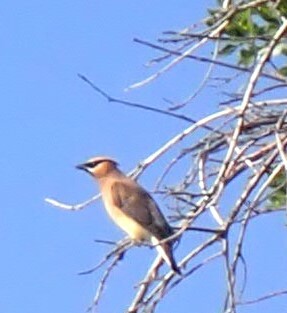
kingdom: Animalia
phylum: Chordata
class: Aves
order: Passeriformes
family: Bombycillidae
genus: Bombycilla
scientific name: Bombycilla cedrorum
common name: Cedar waxwing
